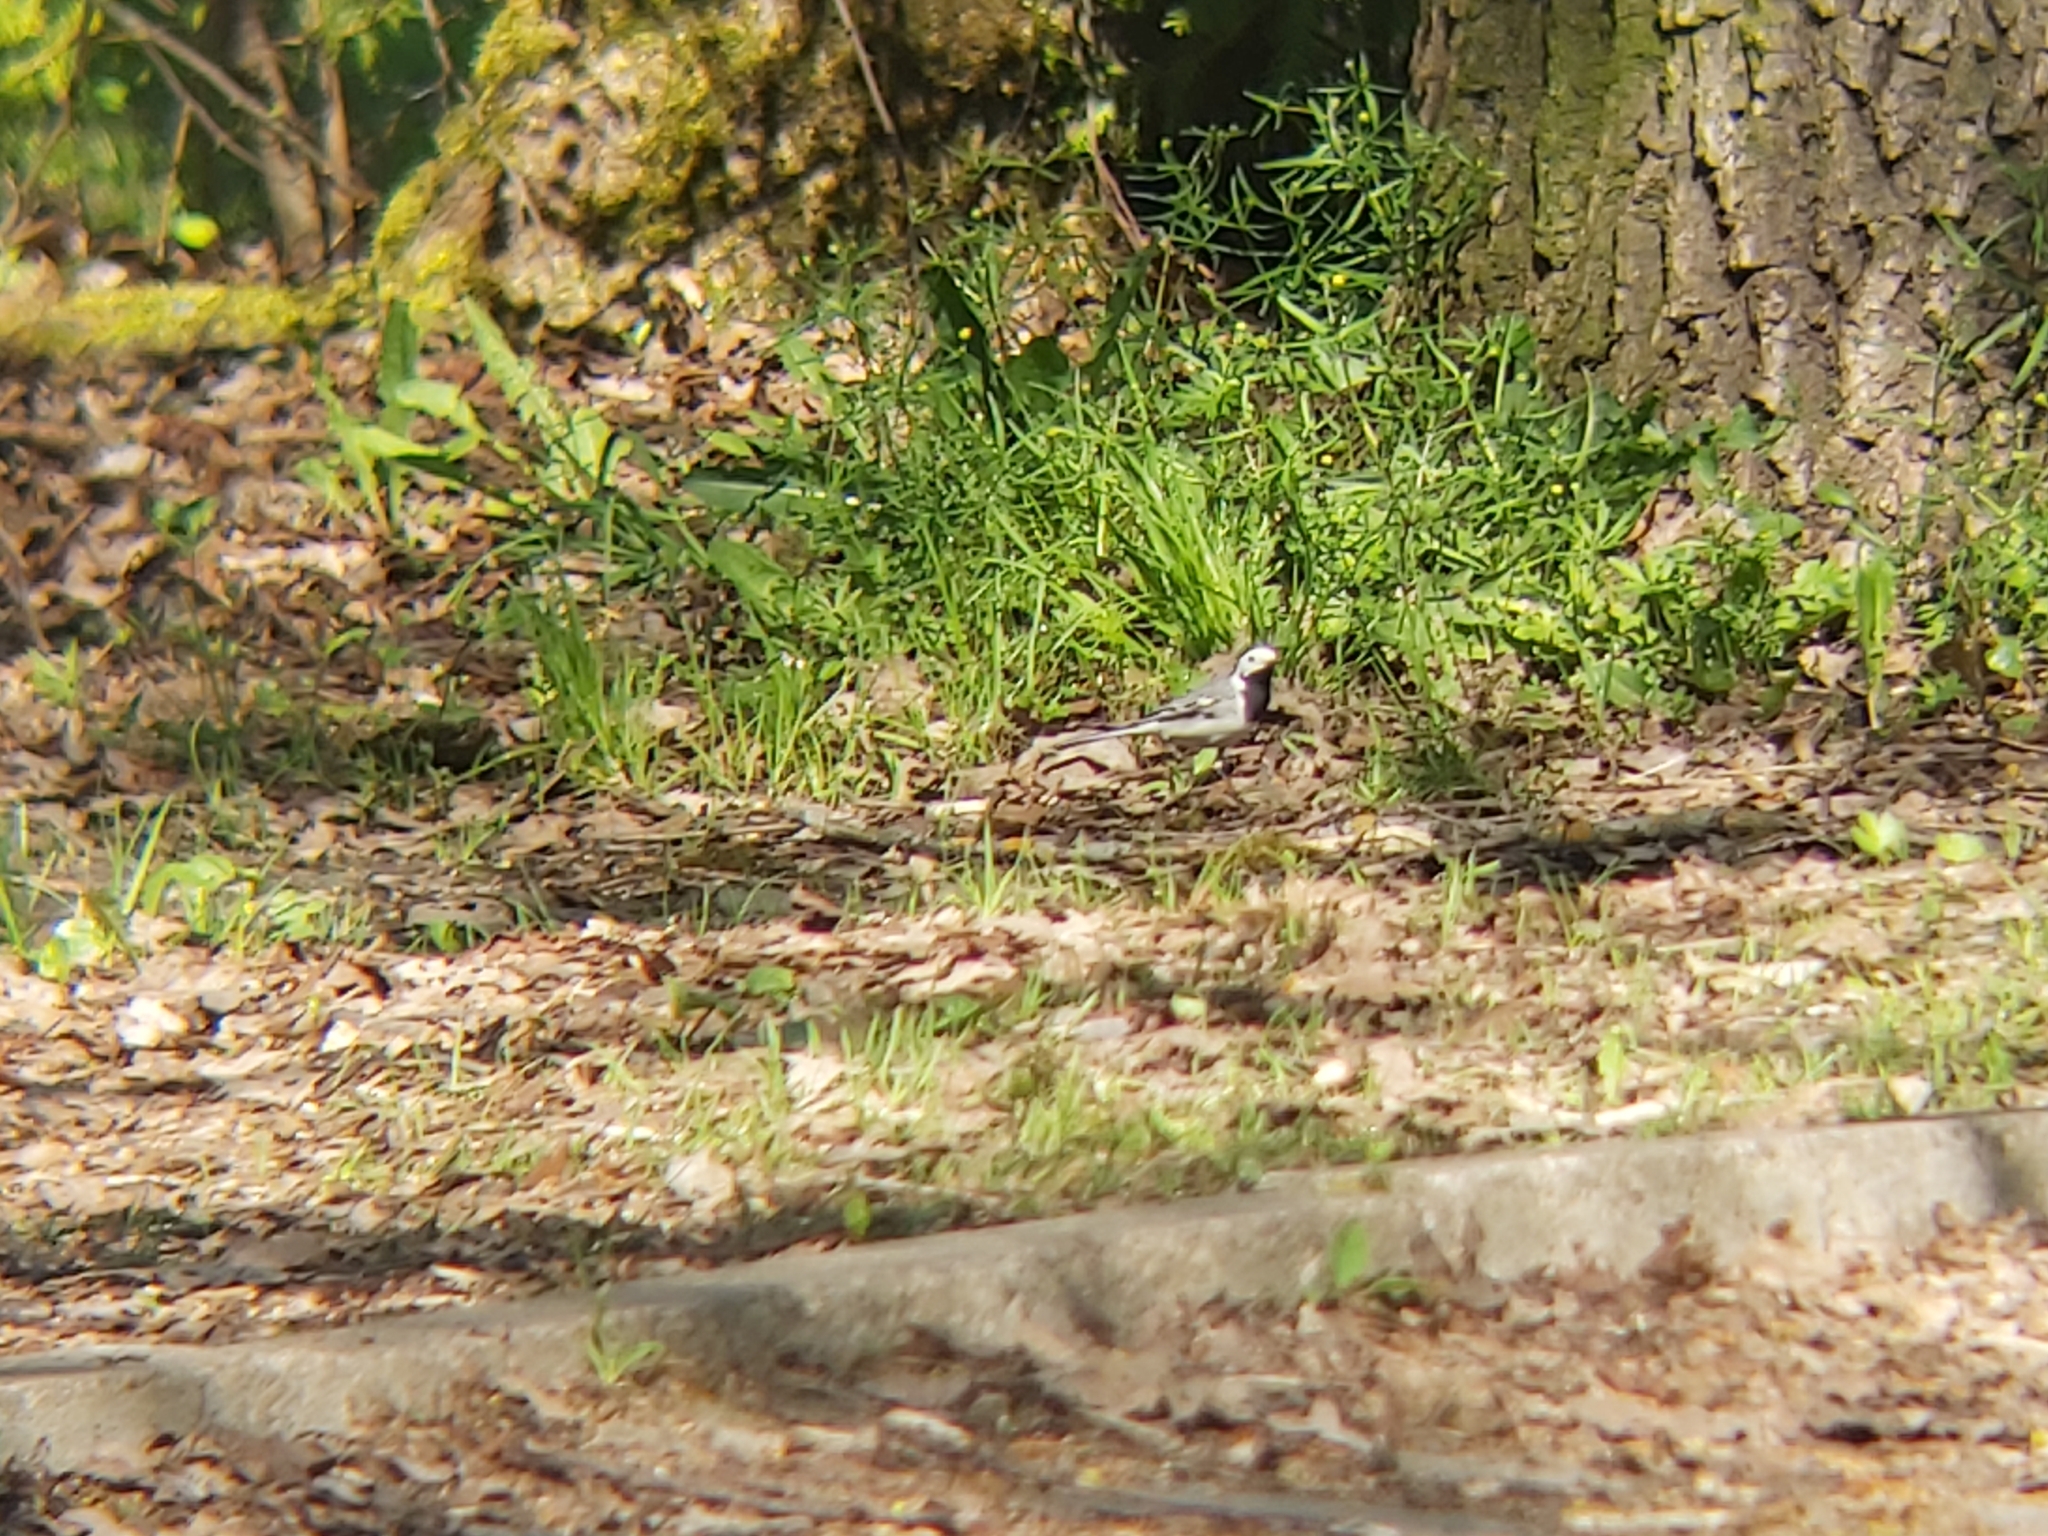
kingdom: Animalia
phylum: Chordata
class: Aves
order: Passeriformes
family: Motacillidae
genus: Motacilla
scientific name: Motacilla alba
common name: White wagtail
